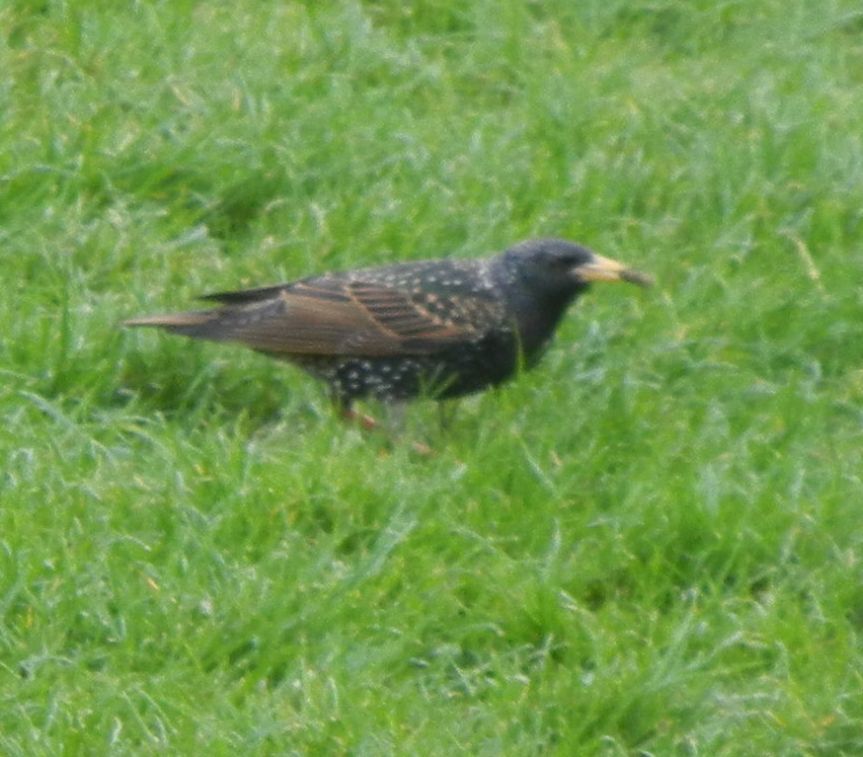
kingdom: Animalia
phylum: Chordata
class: Aves
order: Passeriformes
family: Sturnidae
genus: Sturnus
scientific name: Sturnus vulgaris
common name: Common starling
